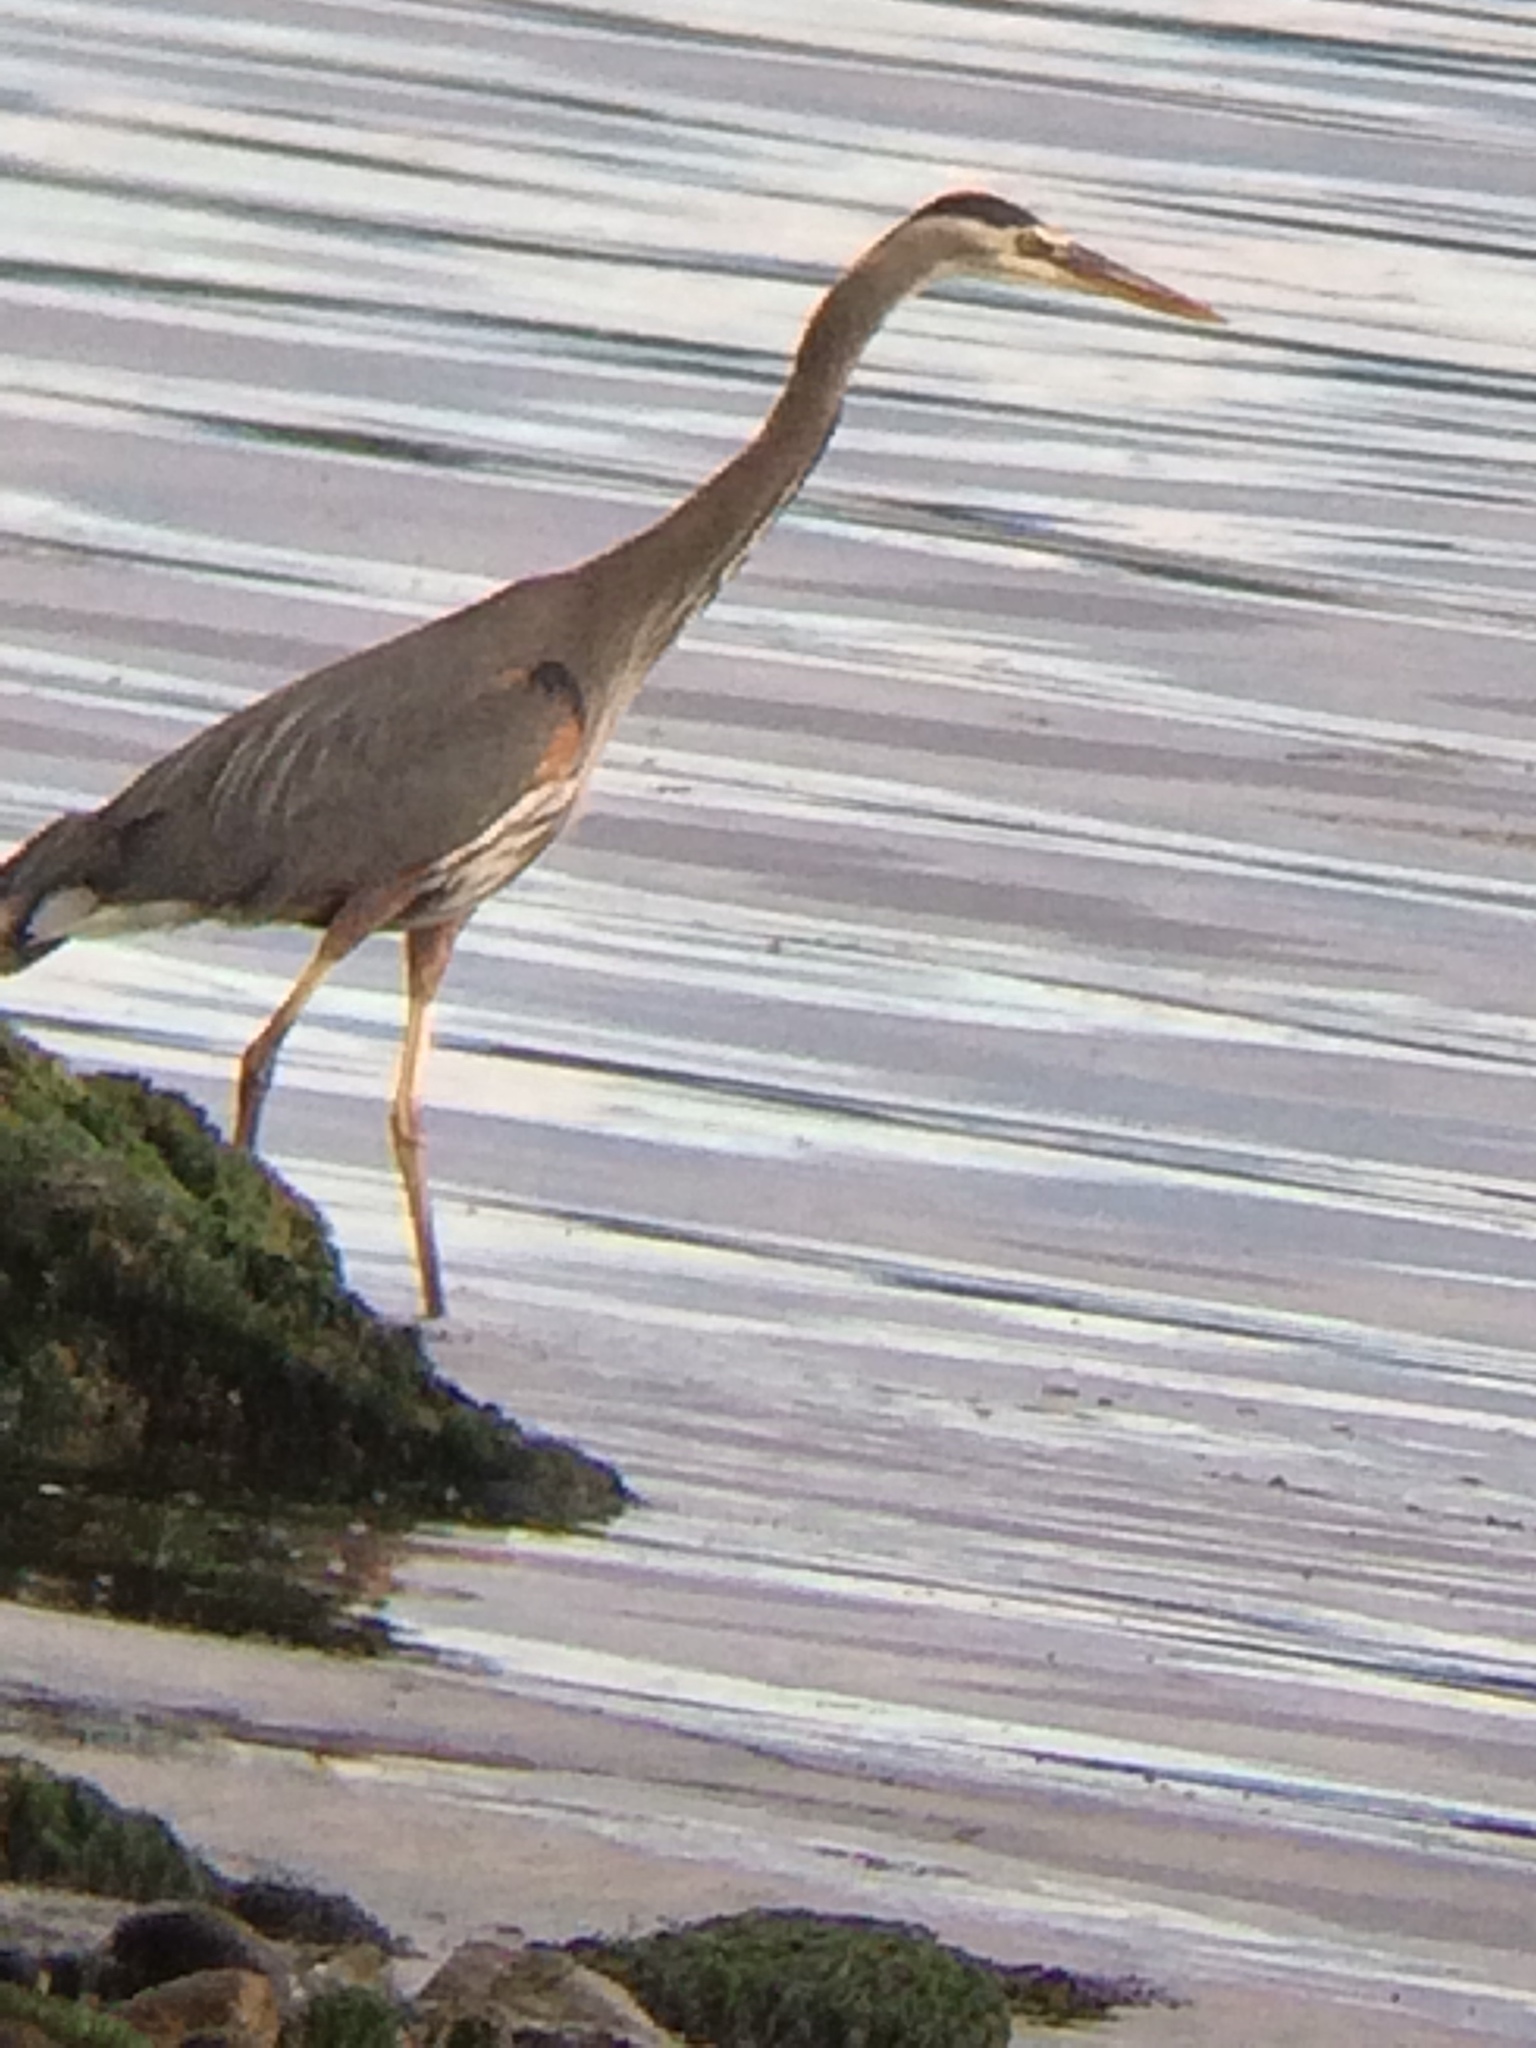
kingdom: Animalia
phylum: Chordata
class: Aves
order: Pelecaniformes
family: Ardeidae
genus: Ardea
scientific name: Ardea herodias
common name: Great blue heron
